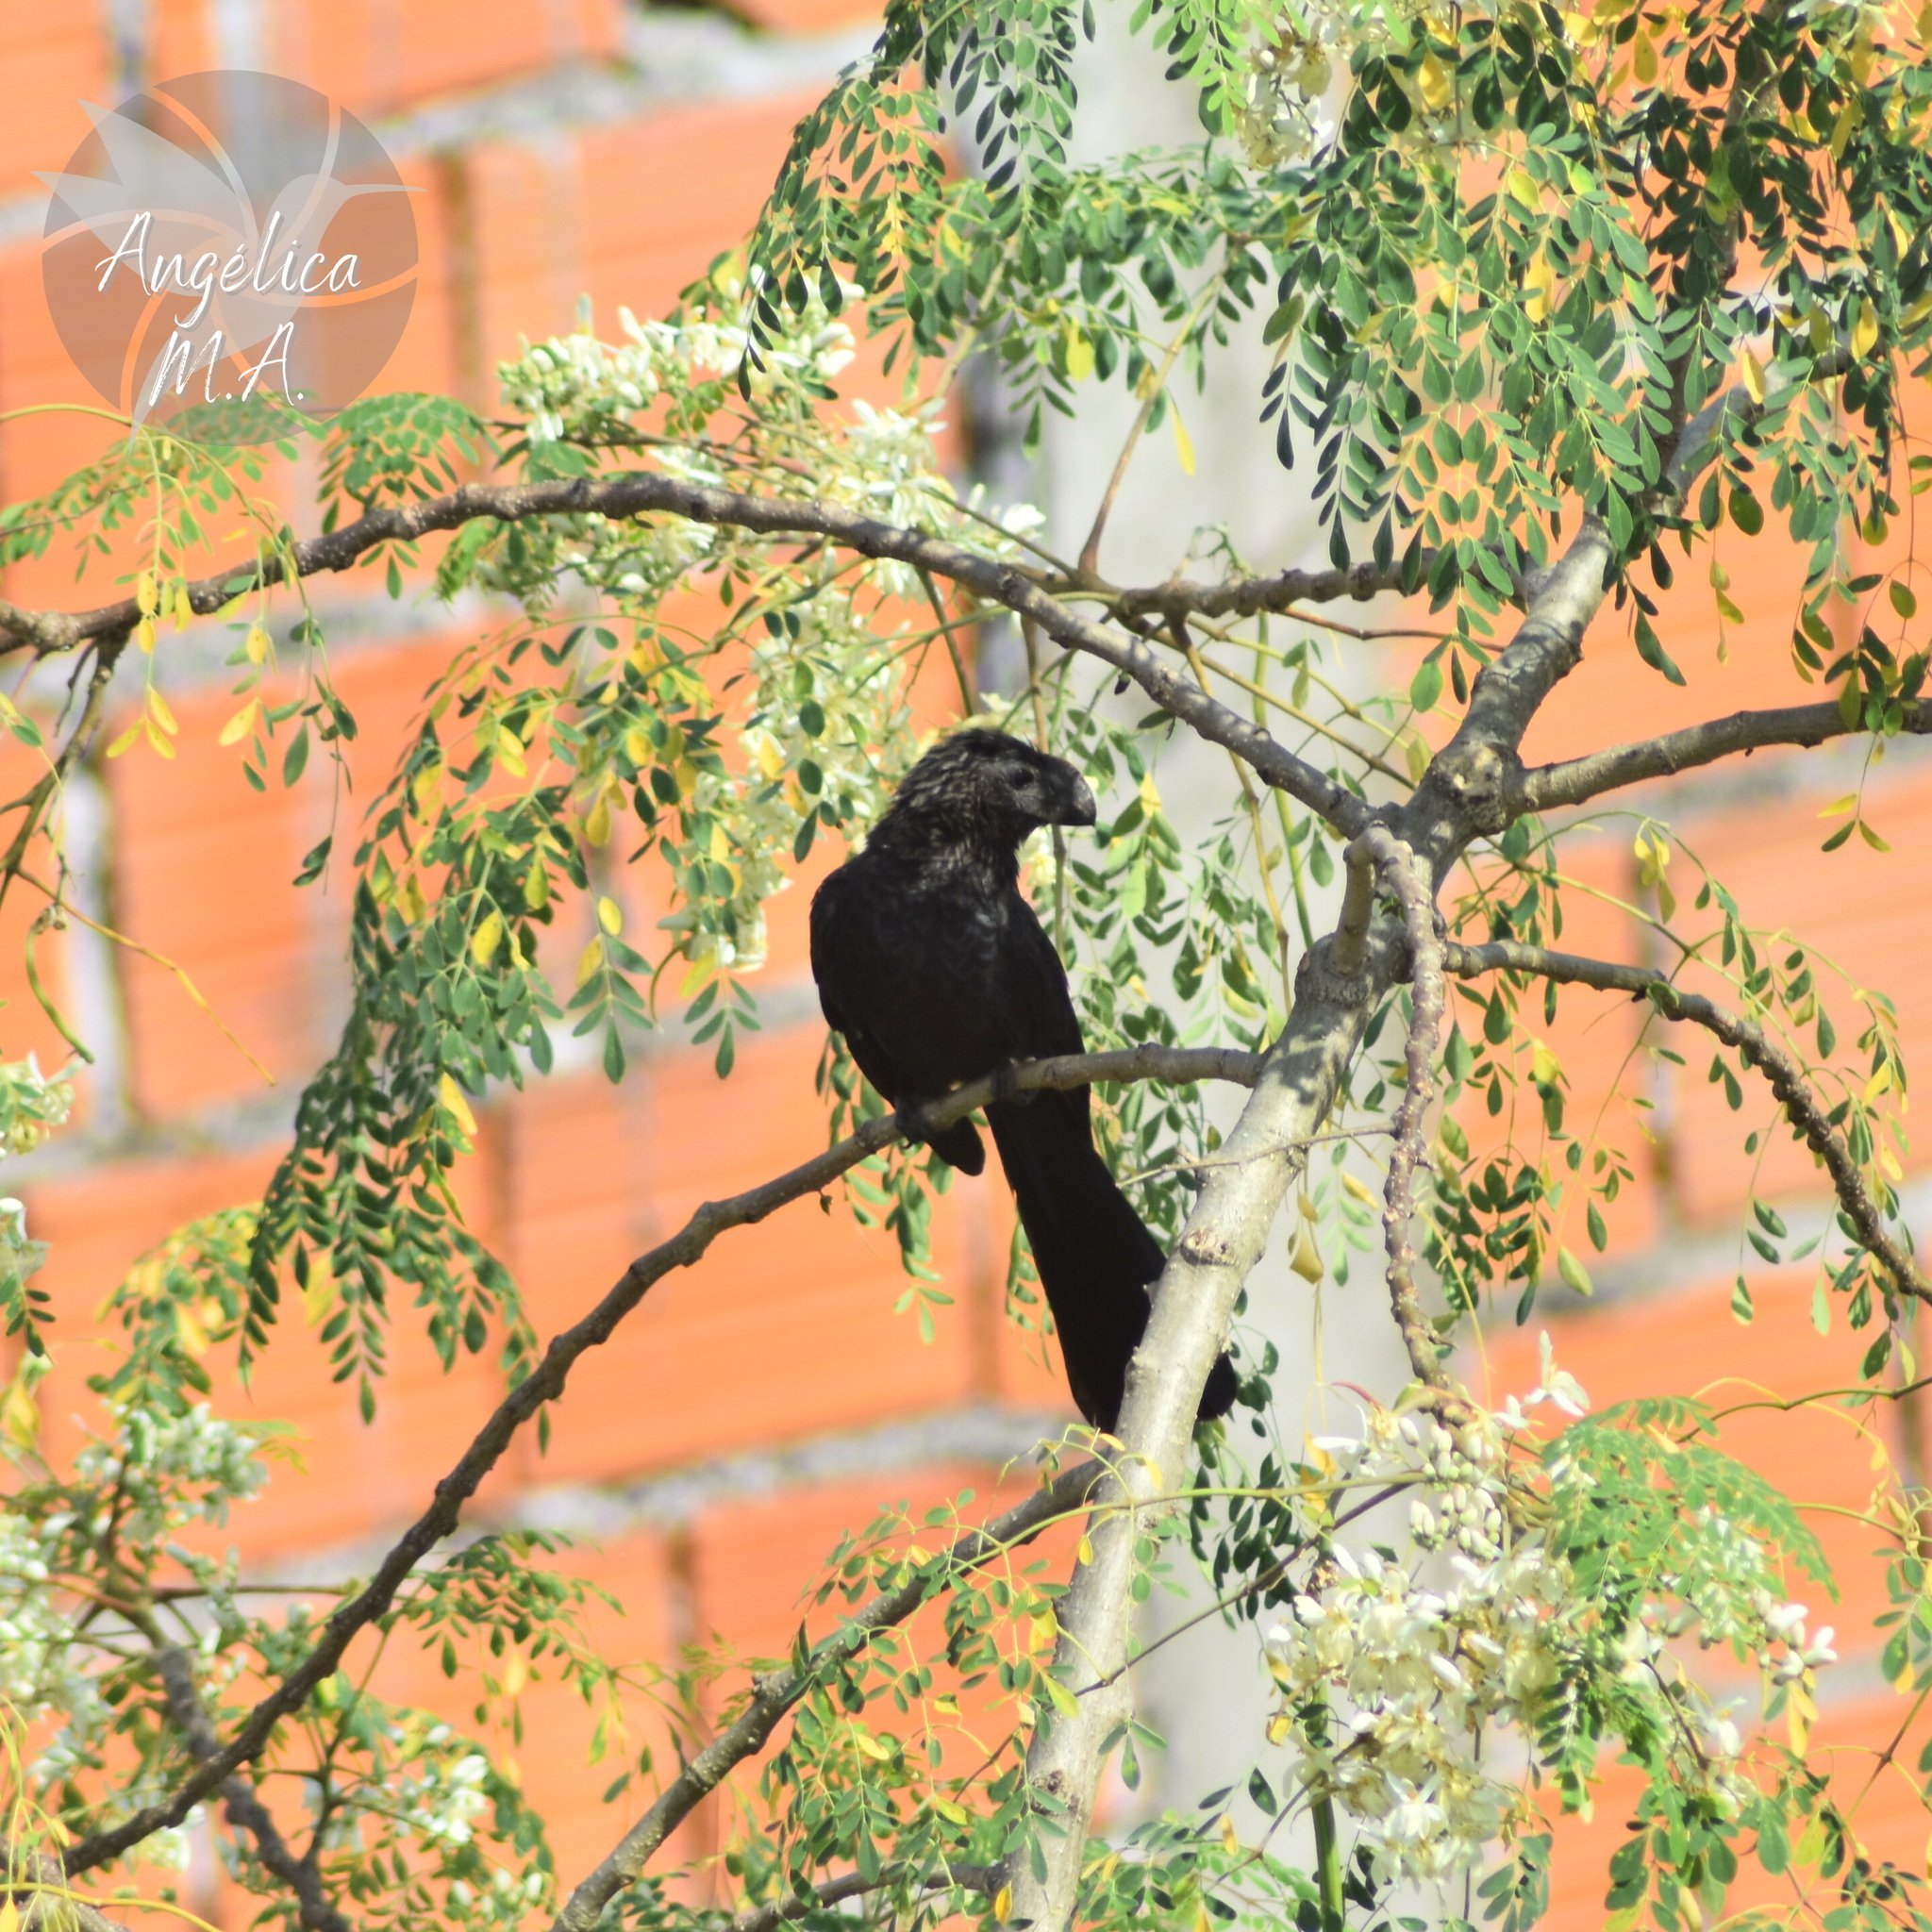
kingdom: Animalia
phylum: Chordata
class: Aves
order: Cuculiformes
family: Cuculidae
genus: Crotophaga
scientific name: Crotophaga ani
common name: Smooth-billed ani
